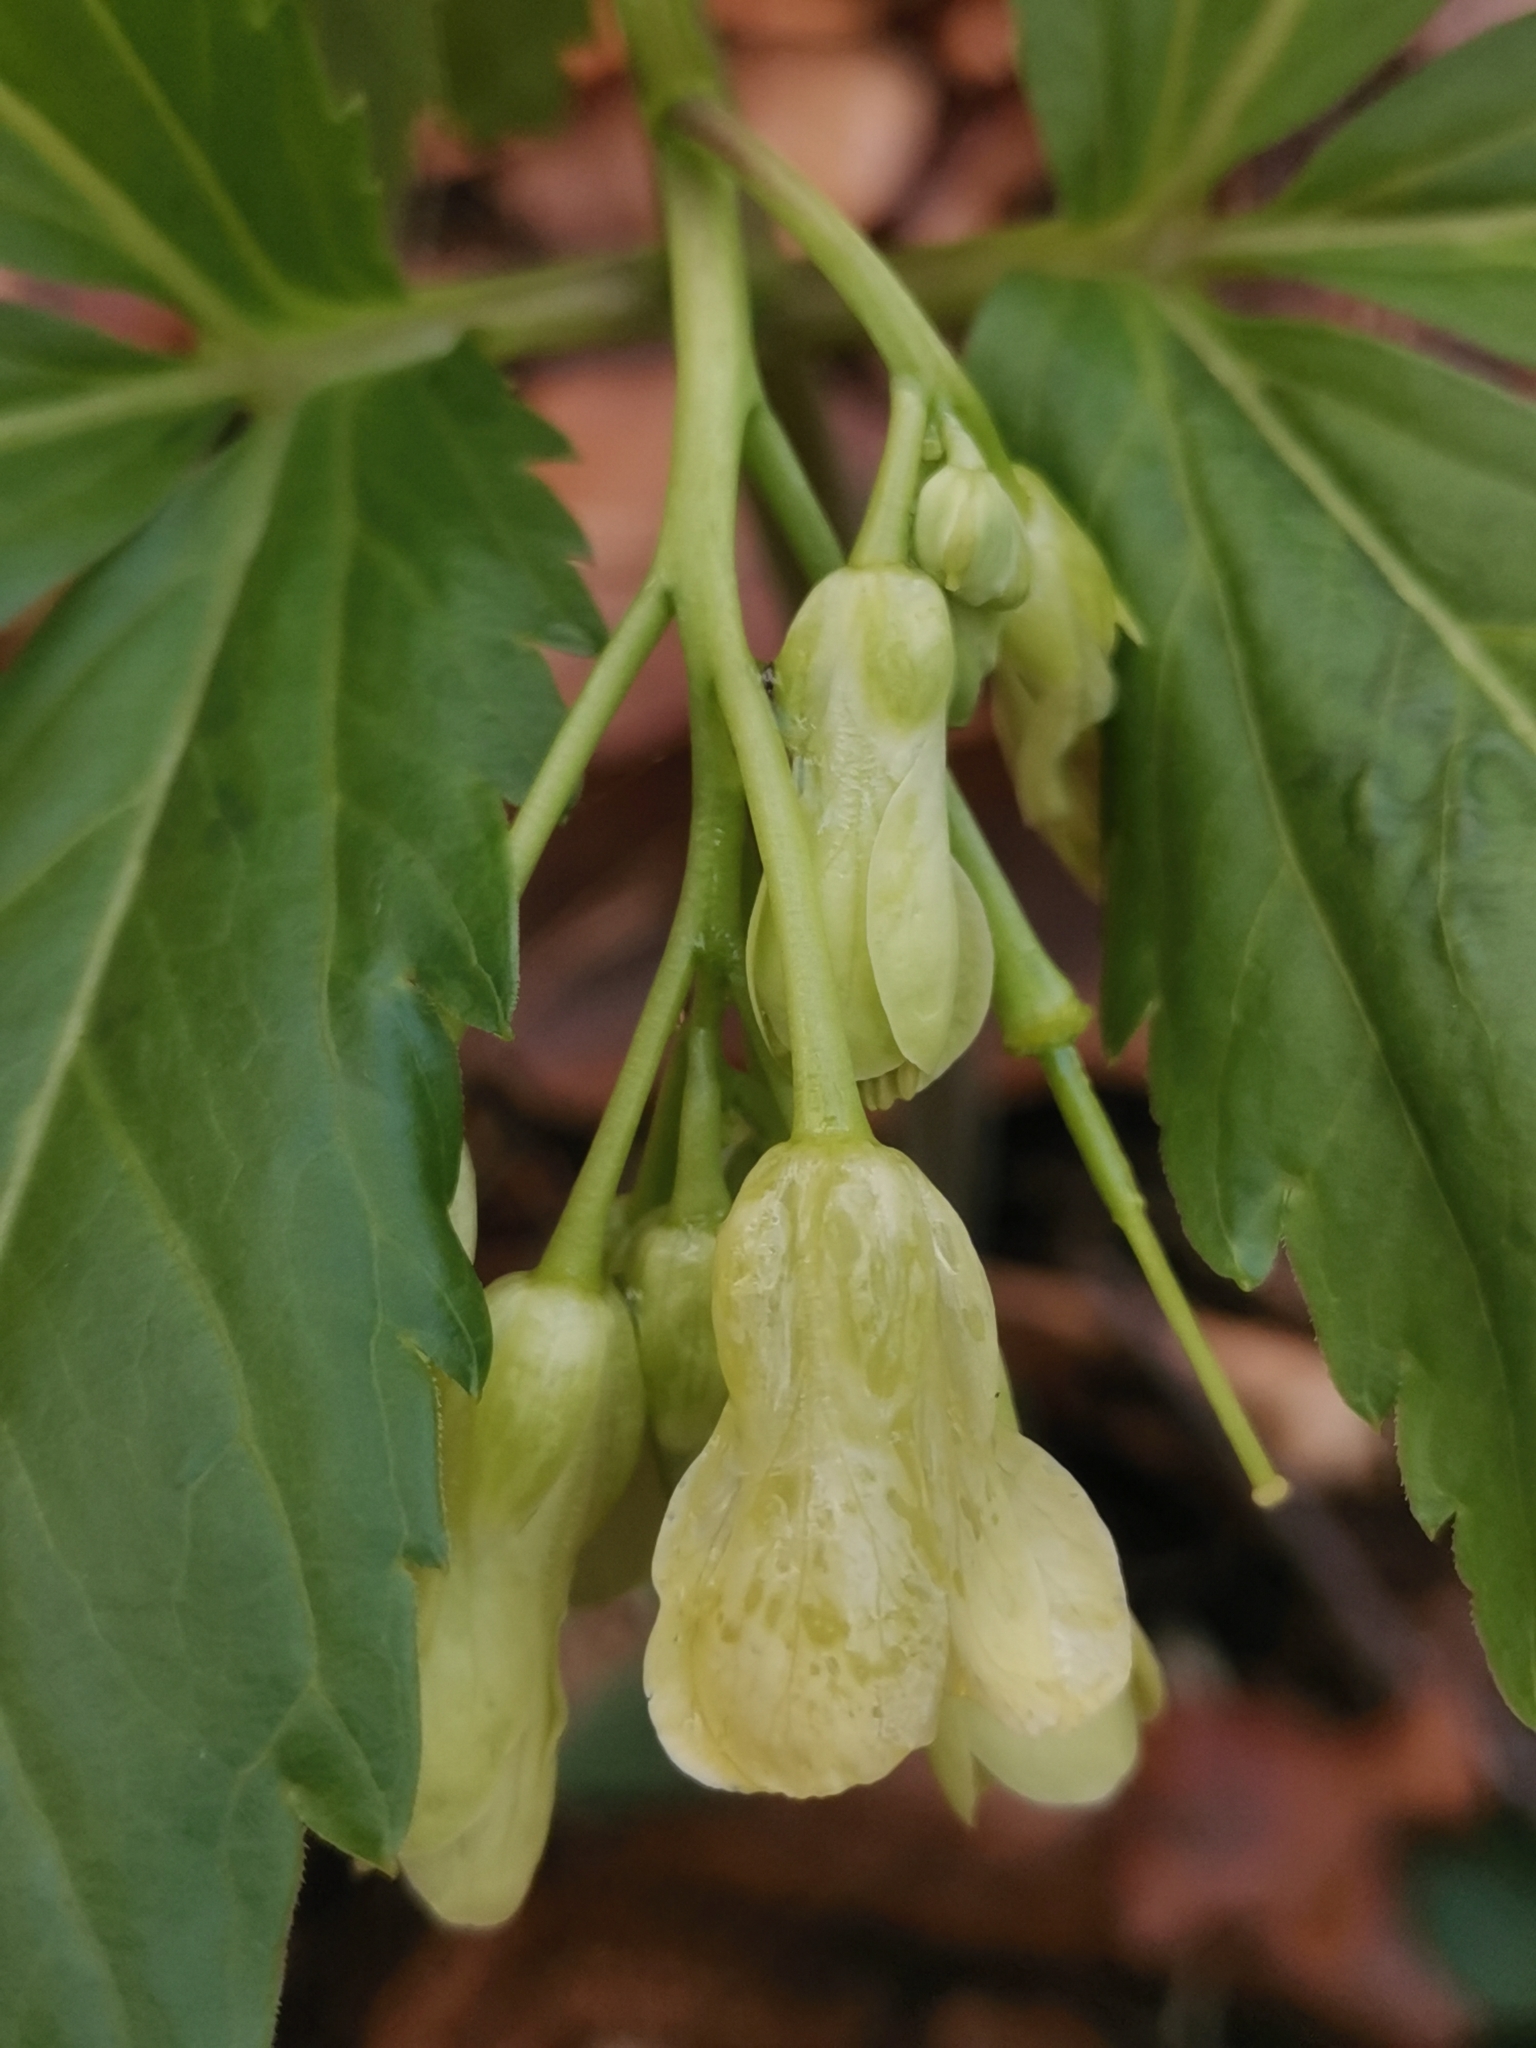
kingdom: Plantae
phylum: Tracheophyta
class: Magnoliopsida
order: Brassicales
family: Brassicaceae
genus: Cardamine
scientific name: Cardamine enneaphyllos
